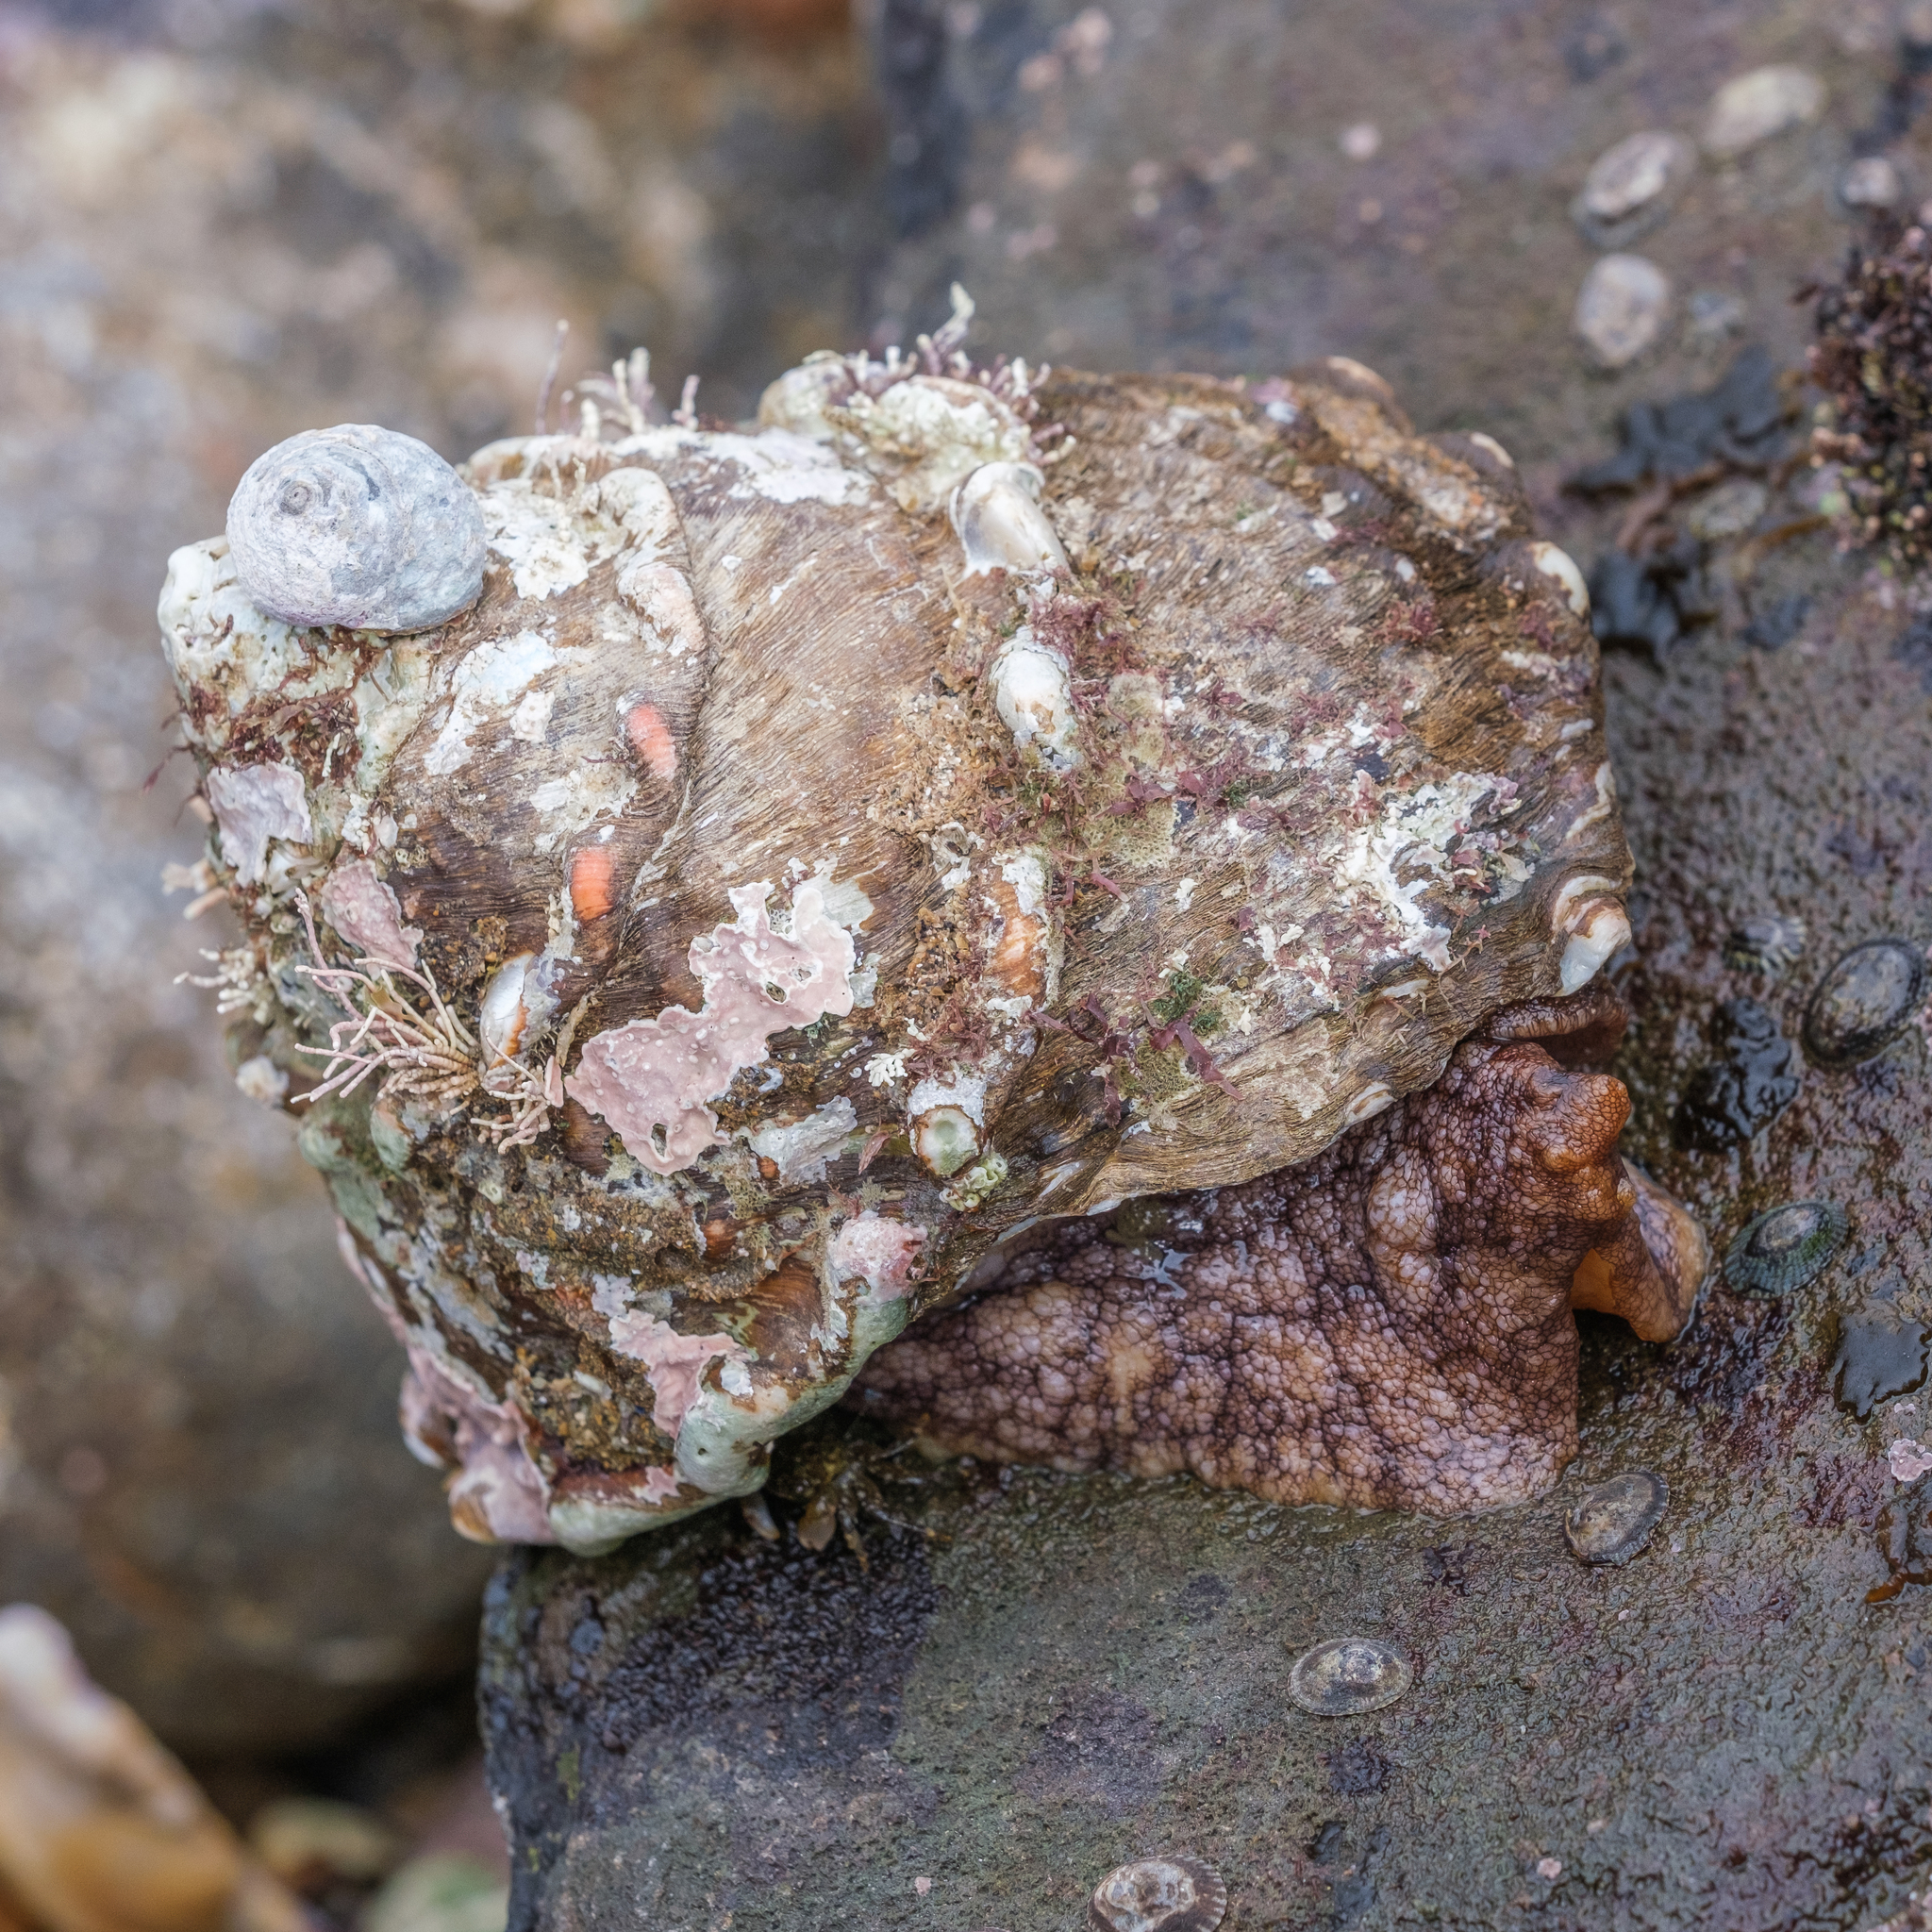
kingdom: Animalia
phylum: Mollusca
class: Gastropoda
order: Trochida
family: Turbinidae
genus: Megastraea
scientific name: Megastraea undosa
